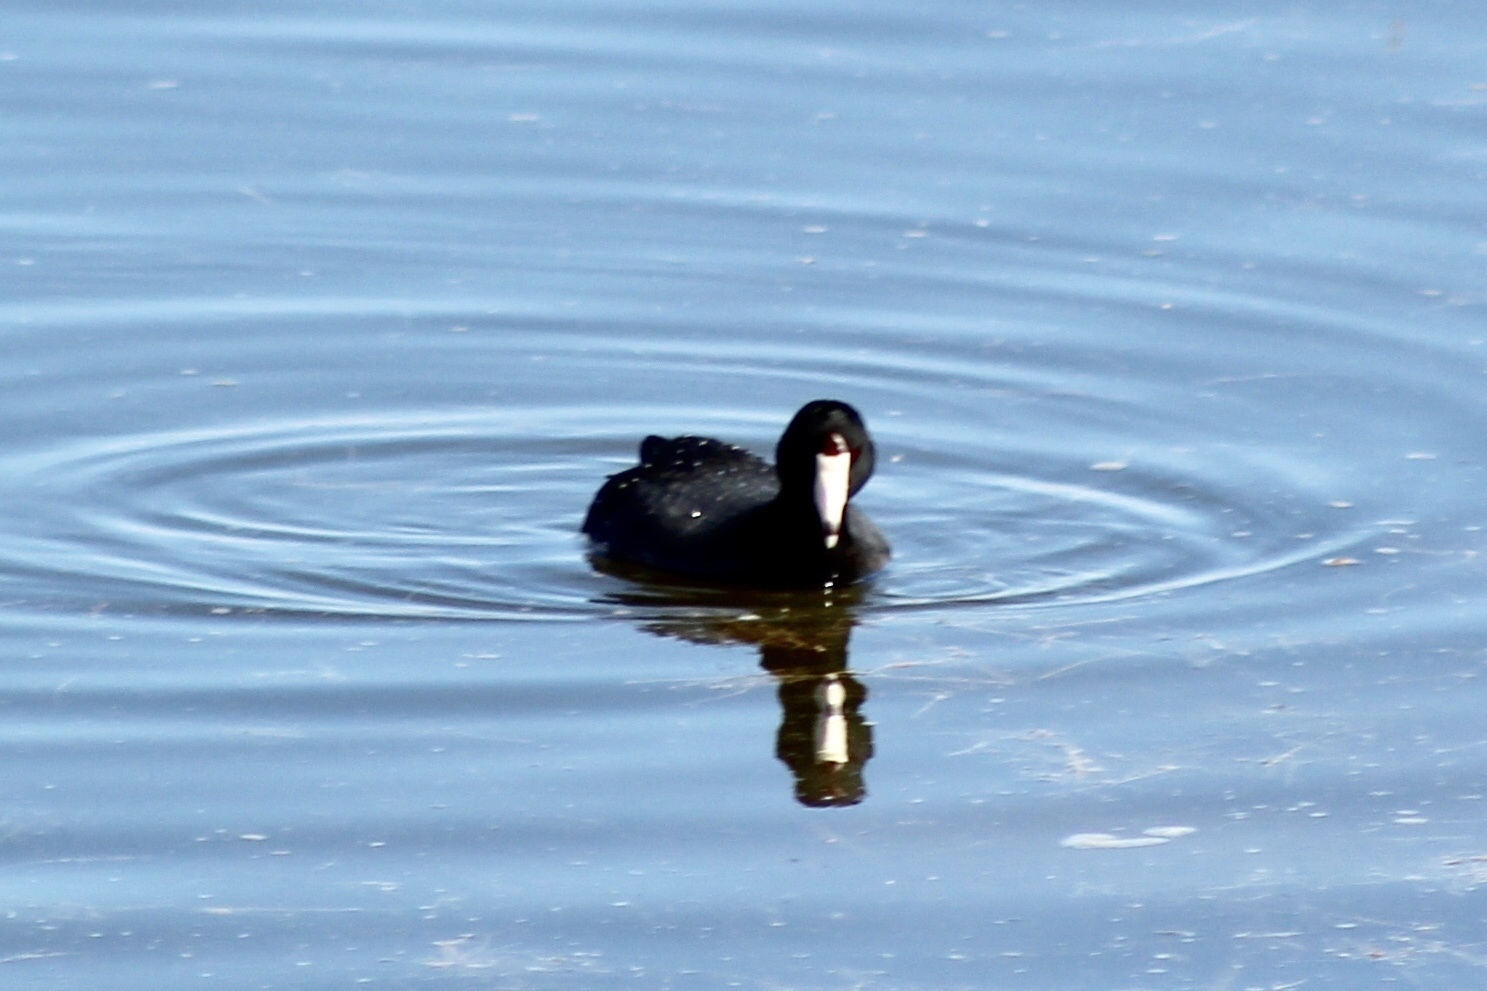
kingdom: Animalia
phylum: Chordata
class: Aves
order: Gruiformes
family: Rallidae
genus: Fulica
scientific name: Fulica americana
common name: American coot
